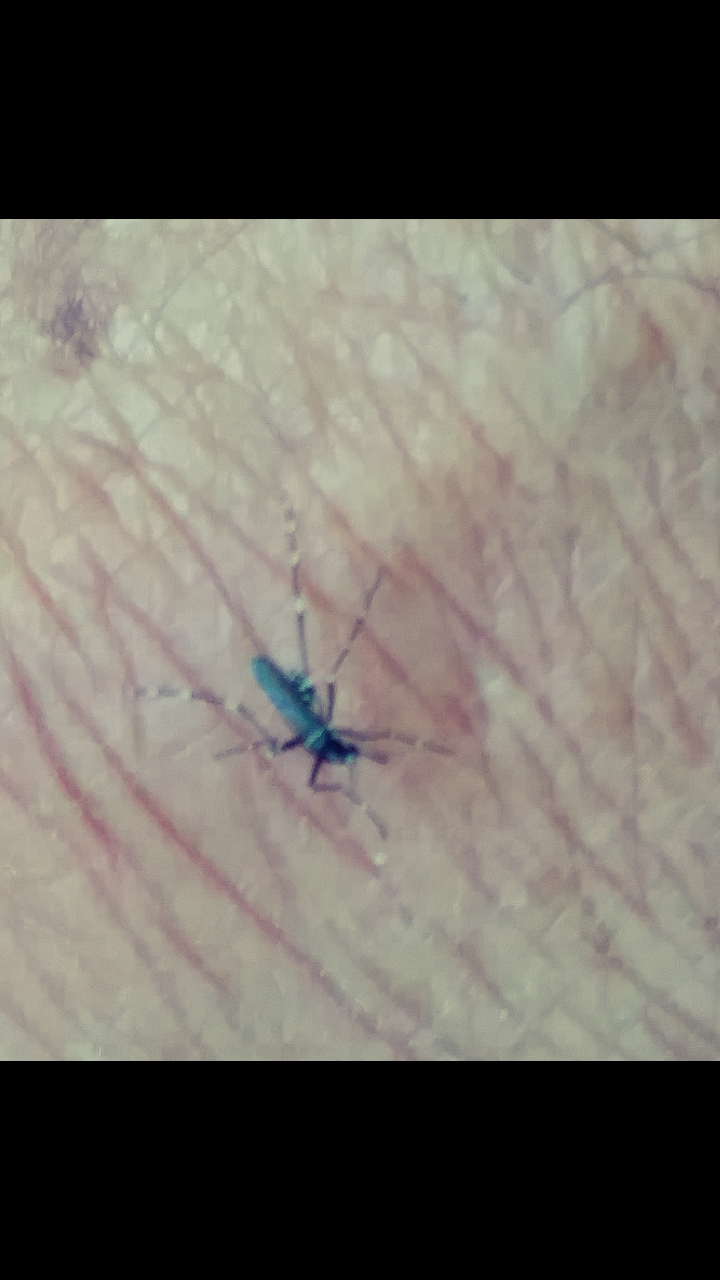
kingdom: Animalia
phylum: Arthropoda
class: Insecta
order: Diptera
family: Culicidae
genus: Aedes
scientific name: Aedes albopictus
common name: Tiger mosquito
